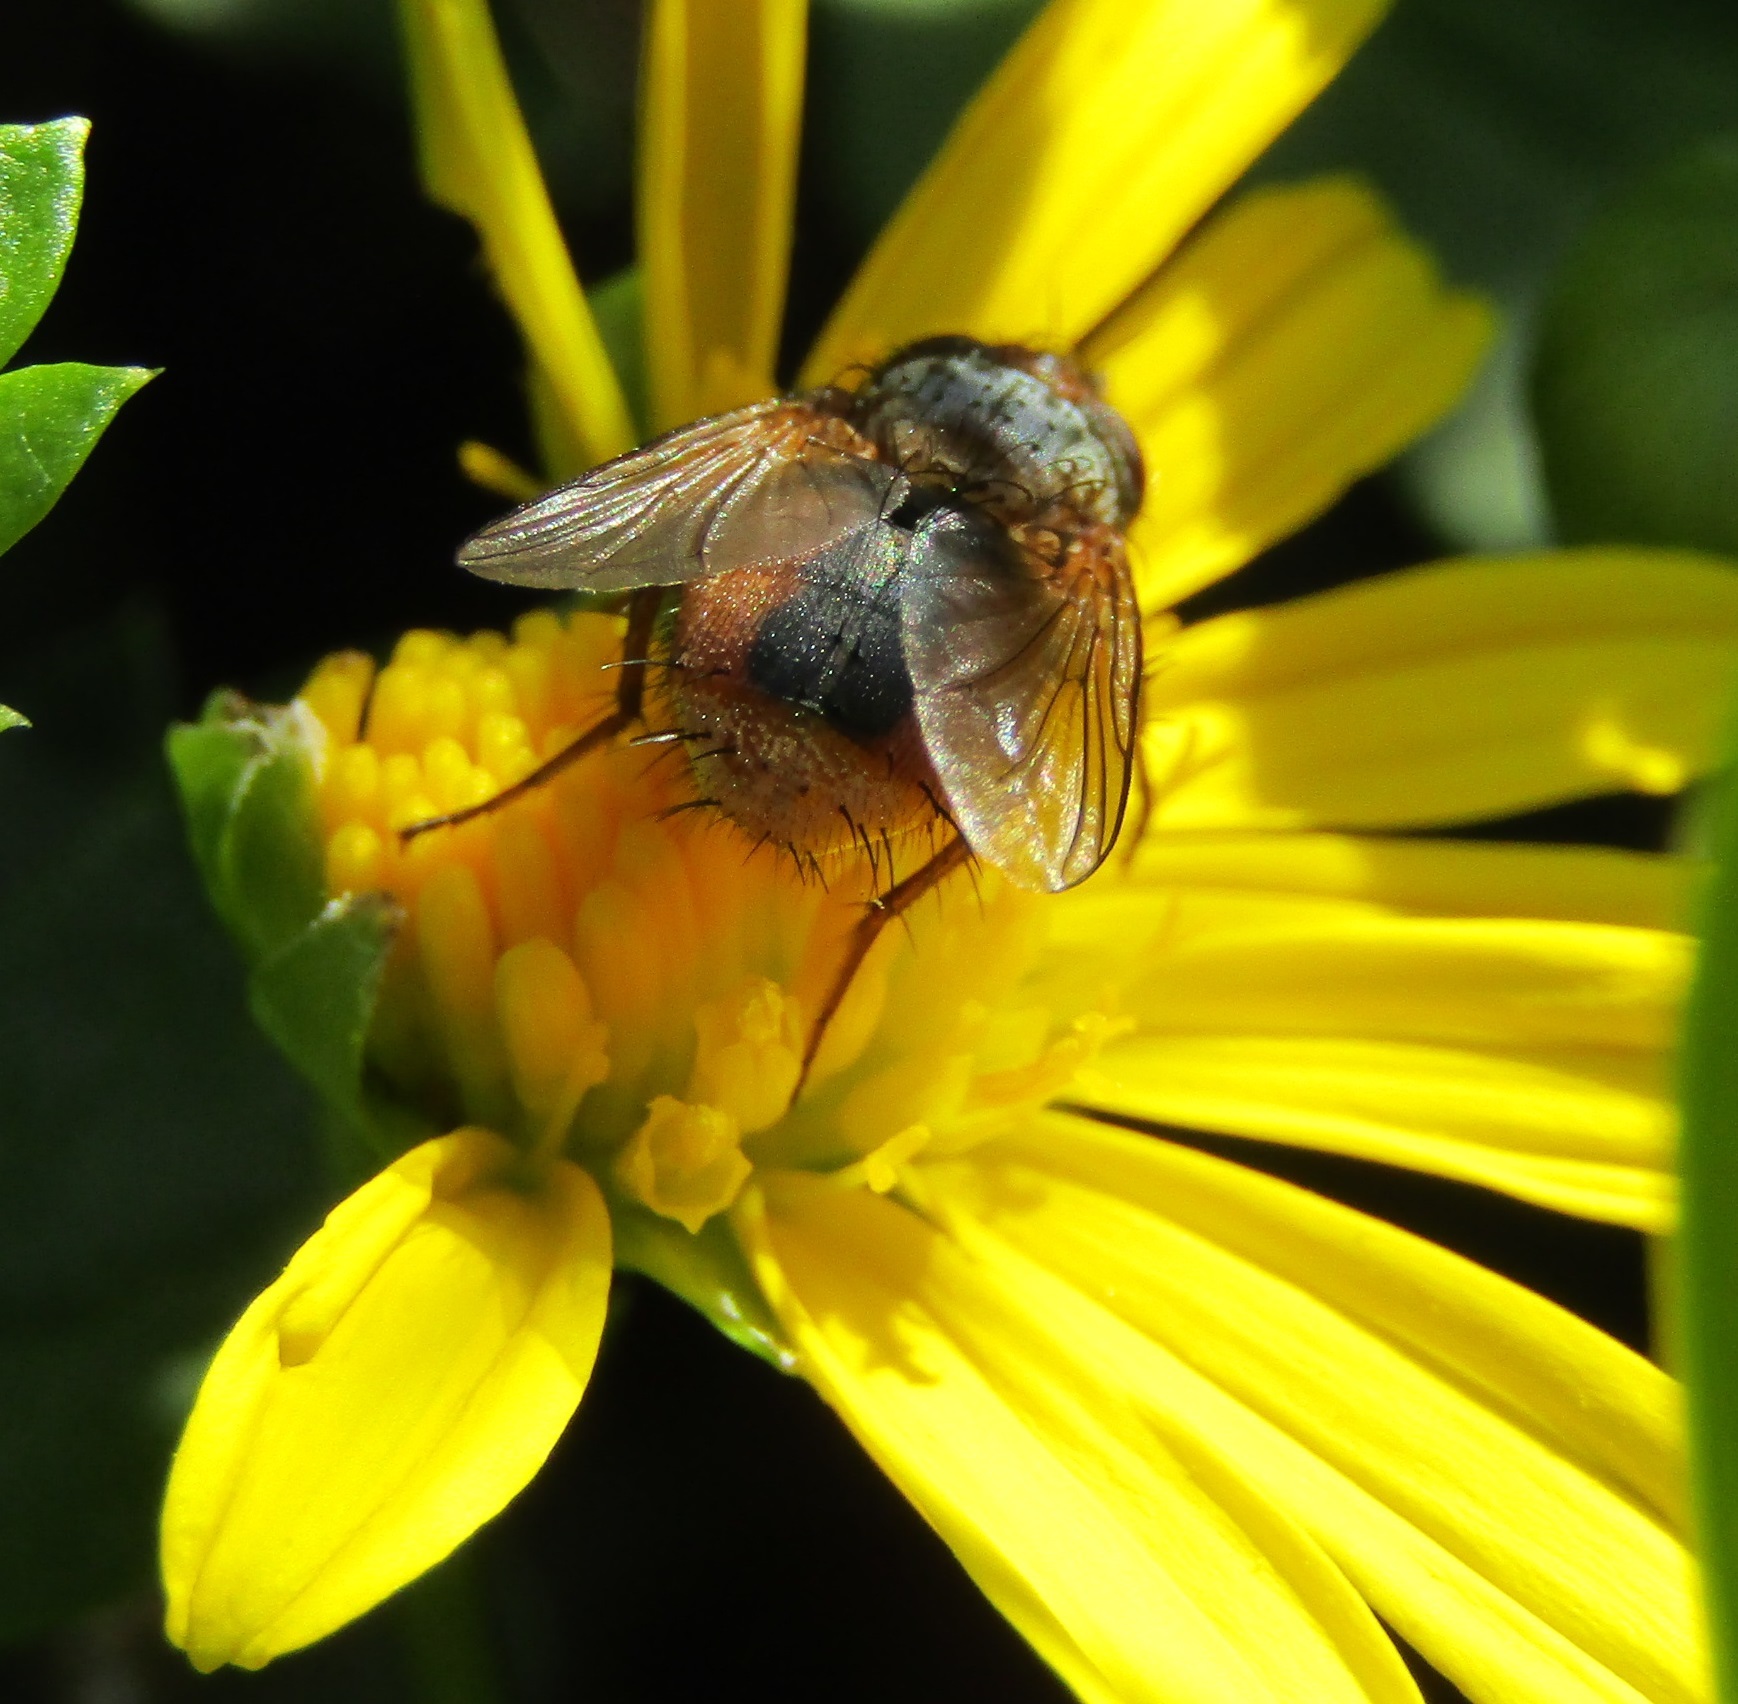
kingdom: Animalia
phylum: Arthropoda
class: Insecta
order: Diptera
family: Tachinidae
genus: Chaetophthalmus
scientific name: Chaetophthalmus bicolor
